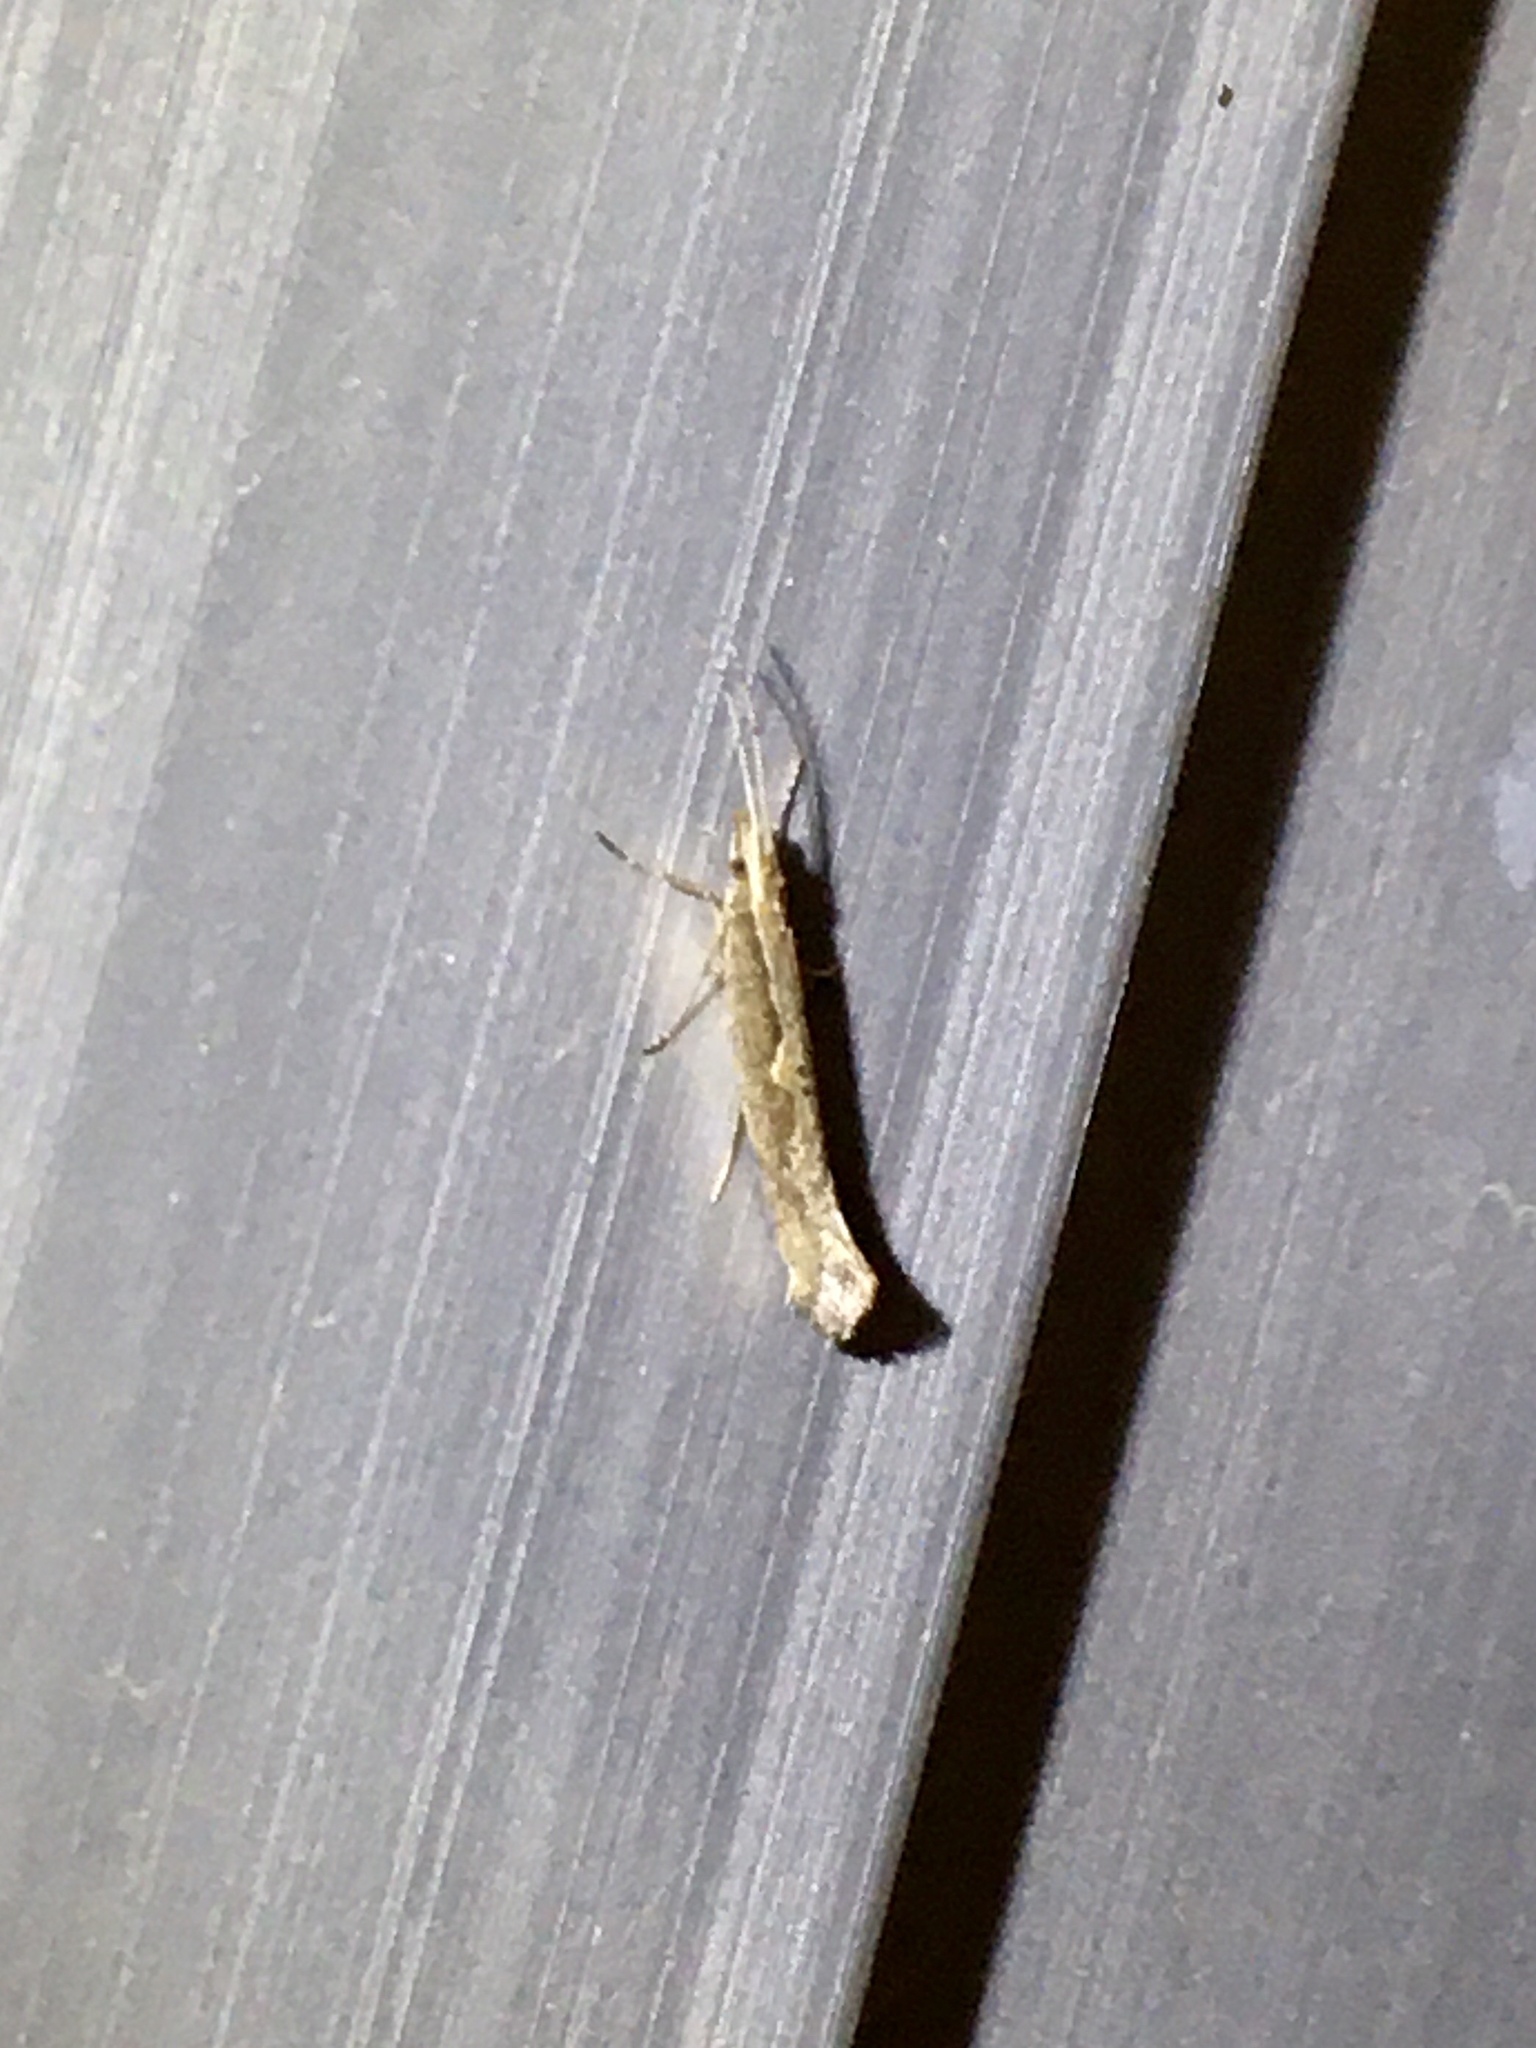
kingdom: Animalia
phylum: Arthropoda
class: Insecta
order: Lepidoptera
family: Plutellidae
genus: Plutella
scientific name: Plutella xylostella
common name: Diamond-back moth
